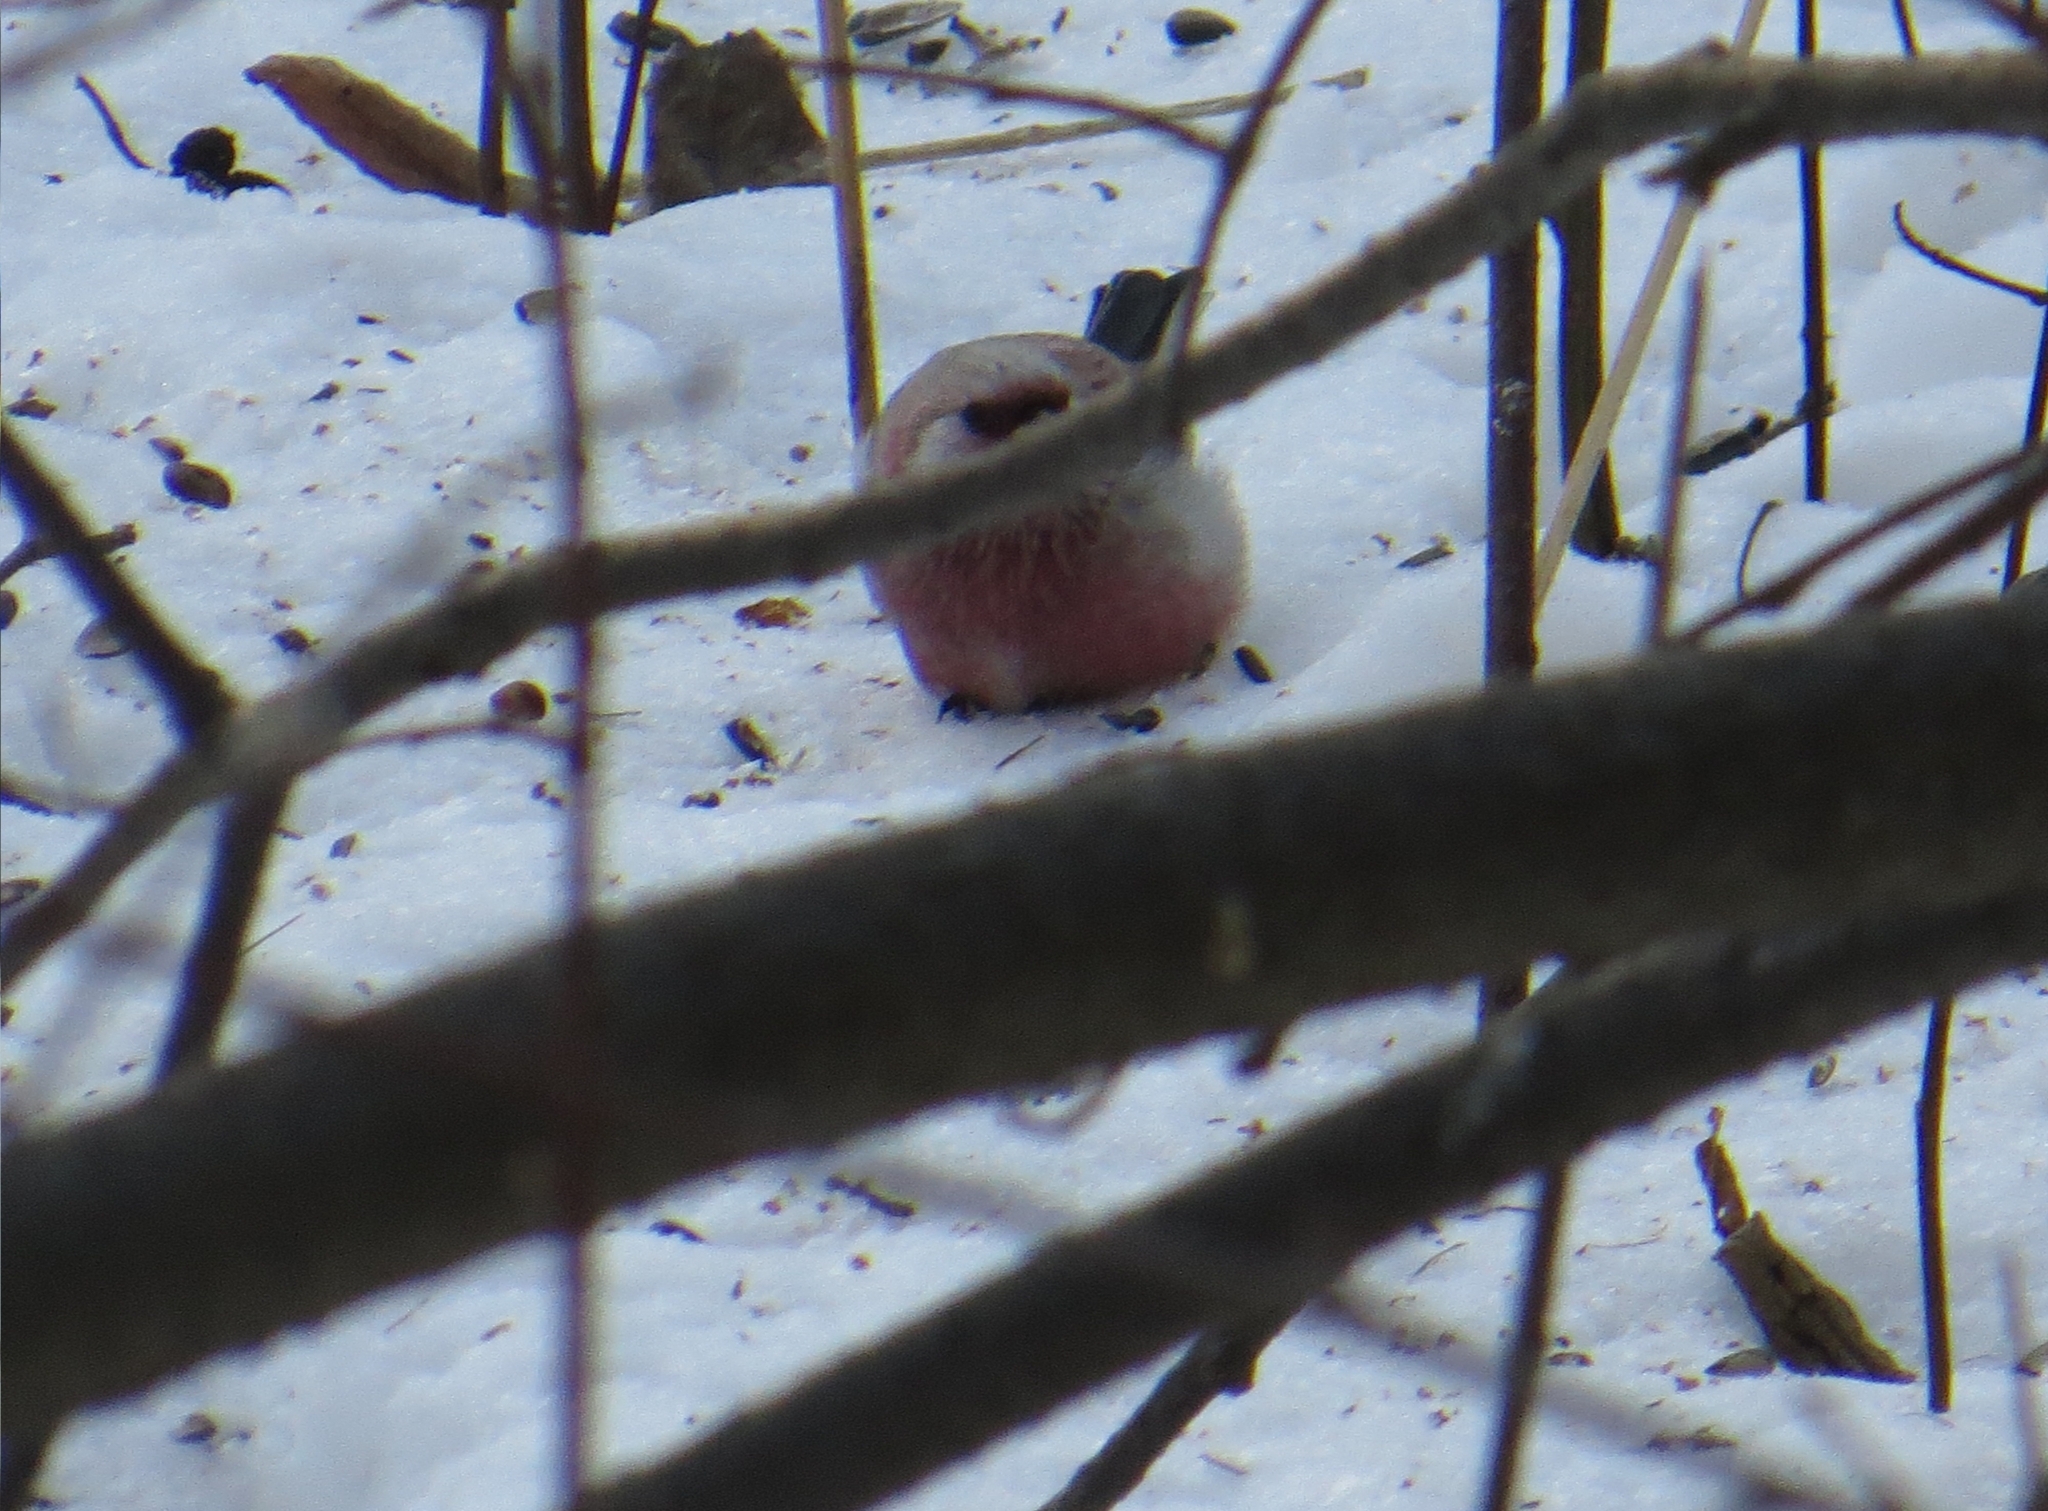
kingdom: Animalia
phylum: Chordata
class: Aves
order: Passeriformes
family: Fringillidae
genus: Carpodacus
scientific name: Carpodacus sibiricus
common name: Long-tailed rosefinch
